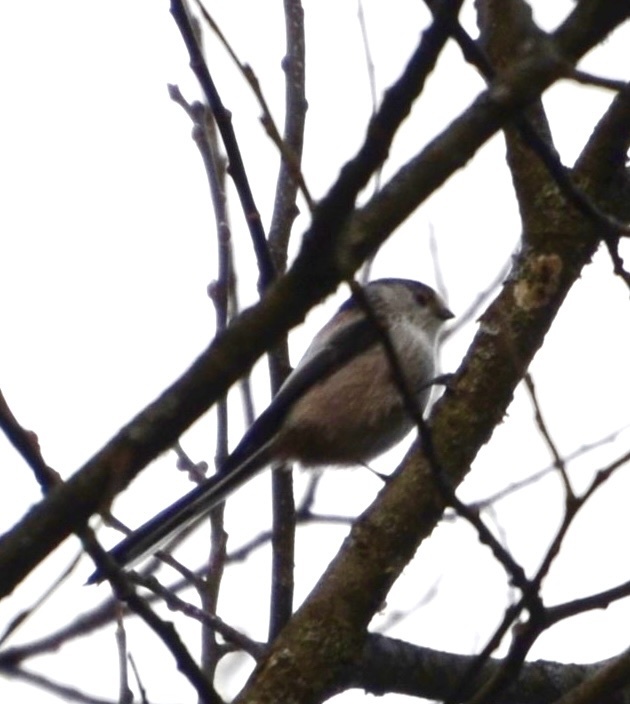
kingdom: Animalia
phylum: Chordata
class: Aves
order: Passeriformes
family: Aegithalidae
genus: Aegithalos
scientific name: Aegithalos caudatus
